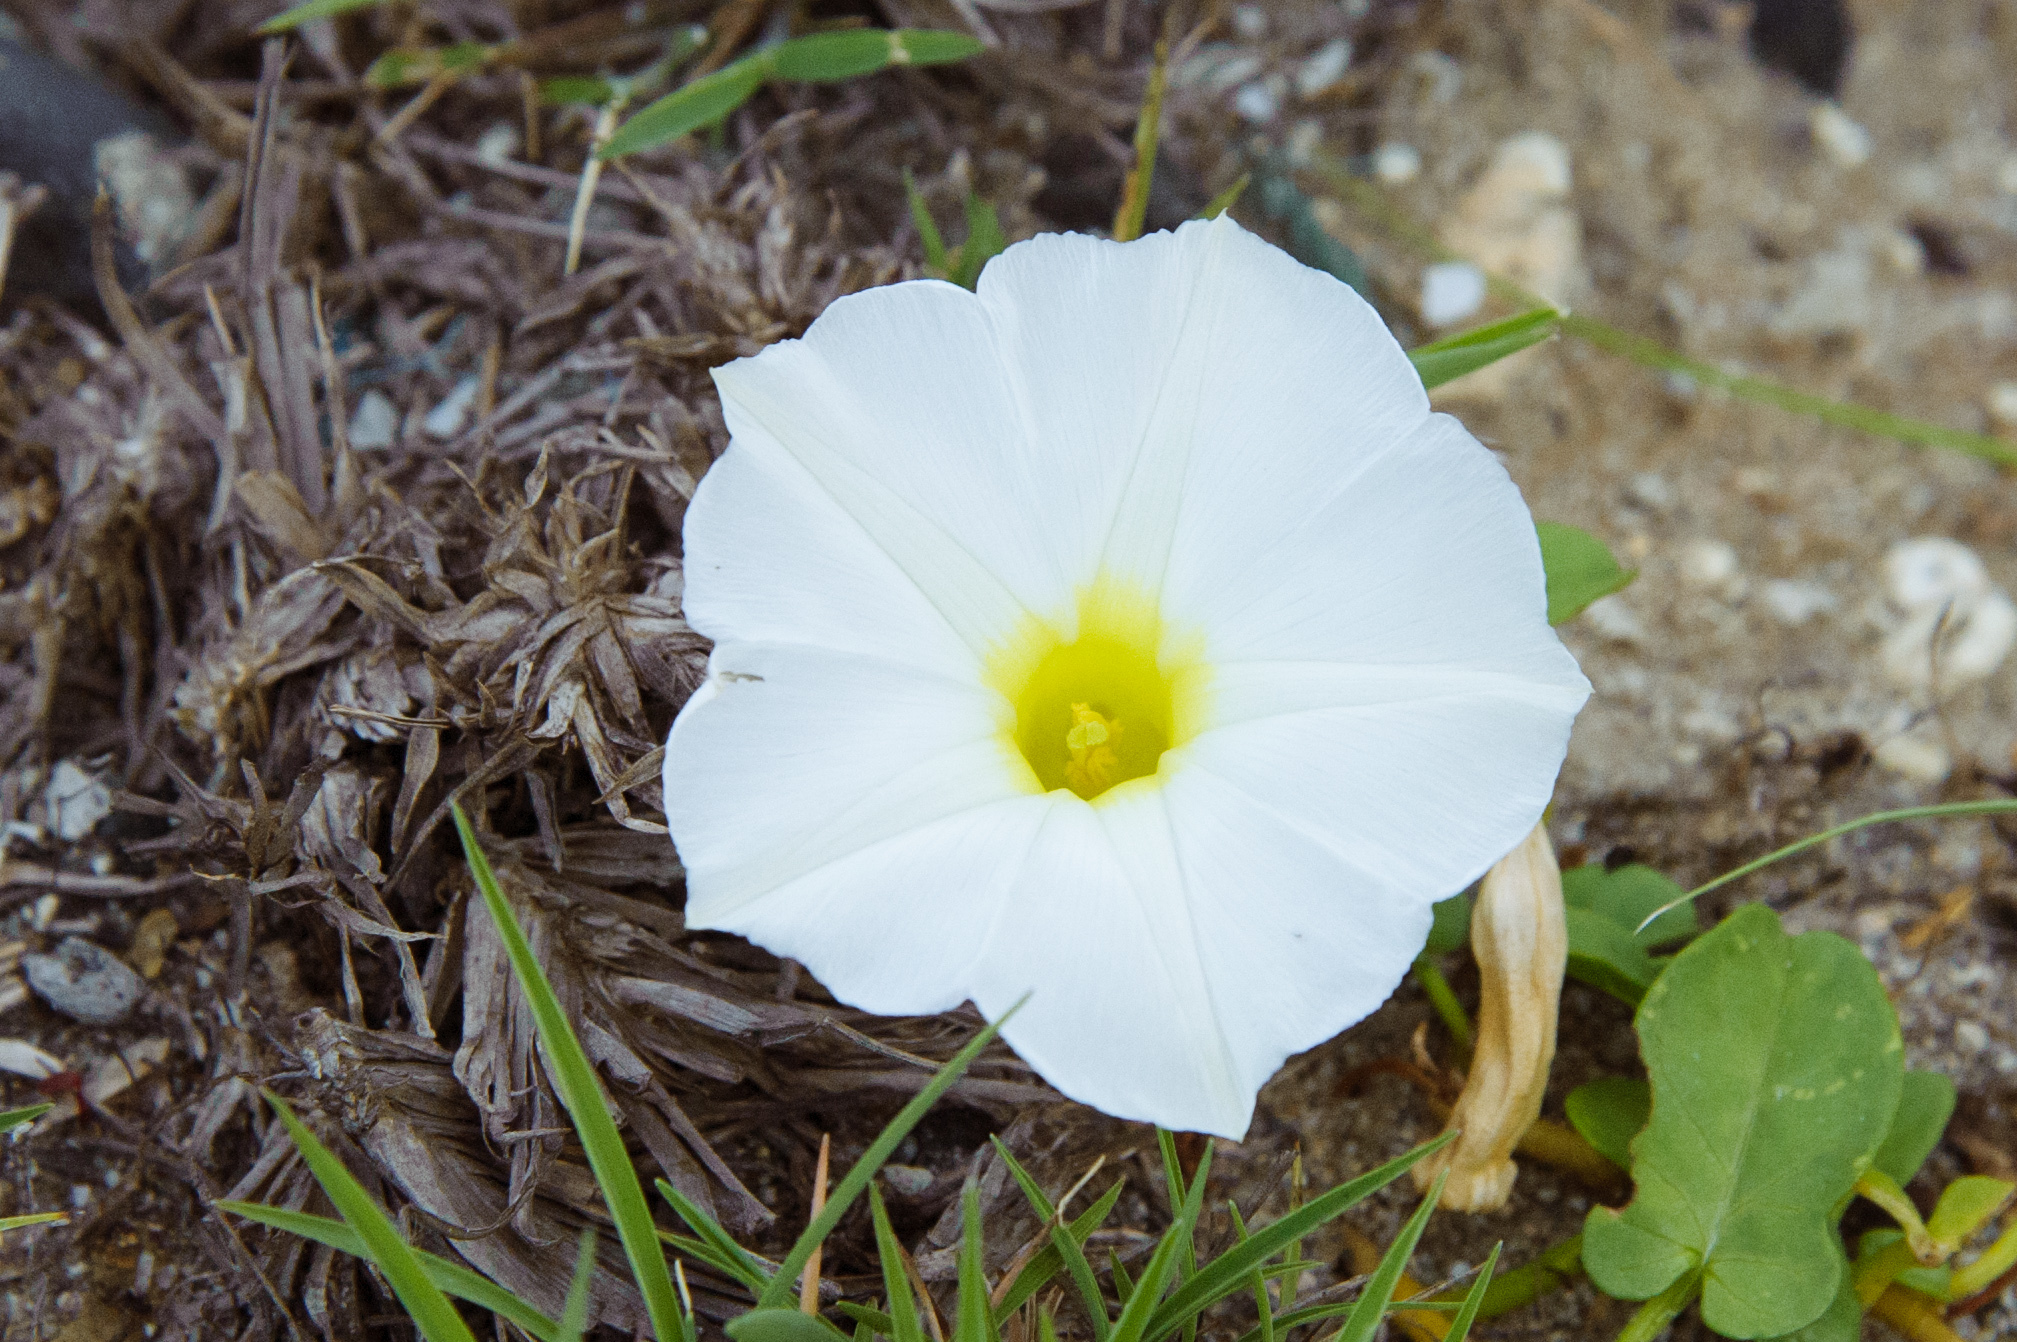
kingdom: Plantae
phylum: Tracheophyta
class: Magnoliopsida
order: Solanales
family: Convolvulaceae
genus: Ipomoea
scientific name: Ipomoea imperati
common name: Fiddle-leaf morning-glory
